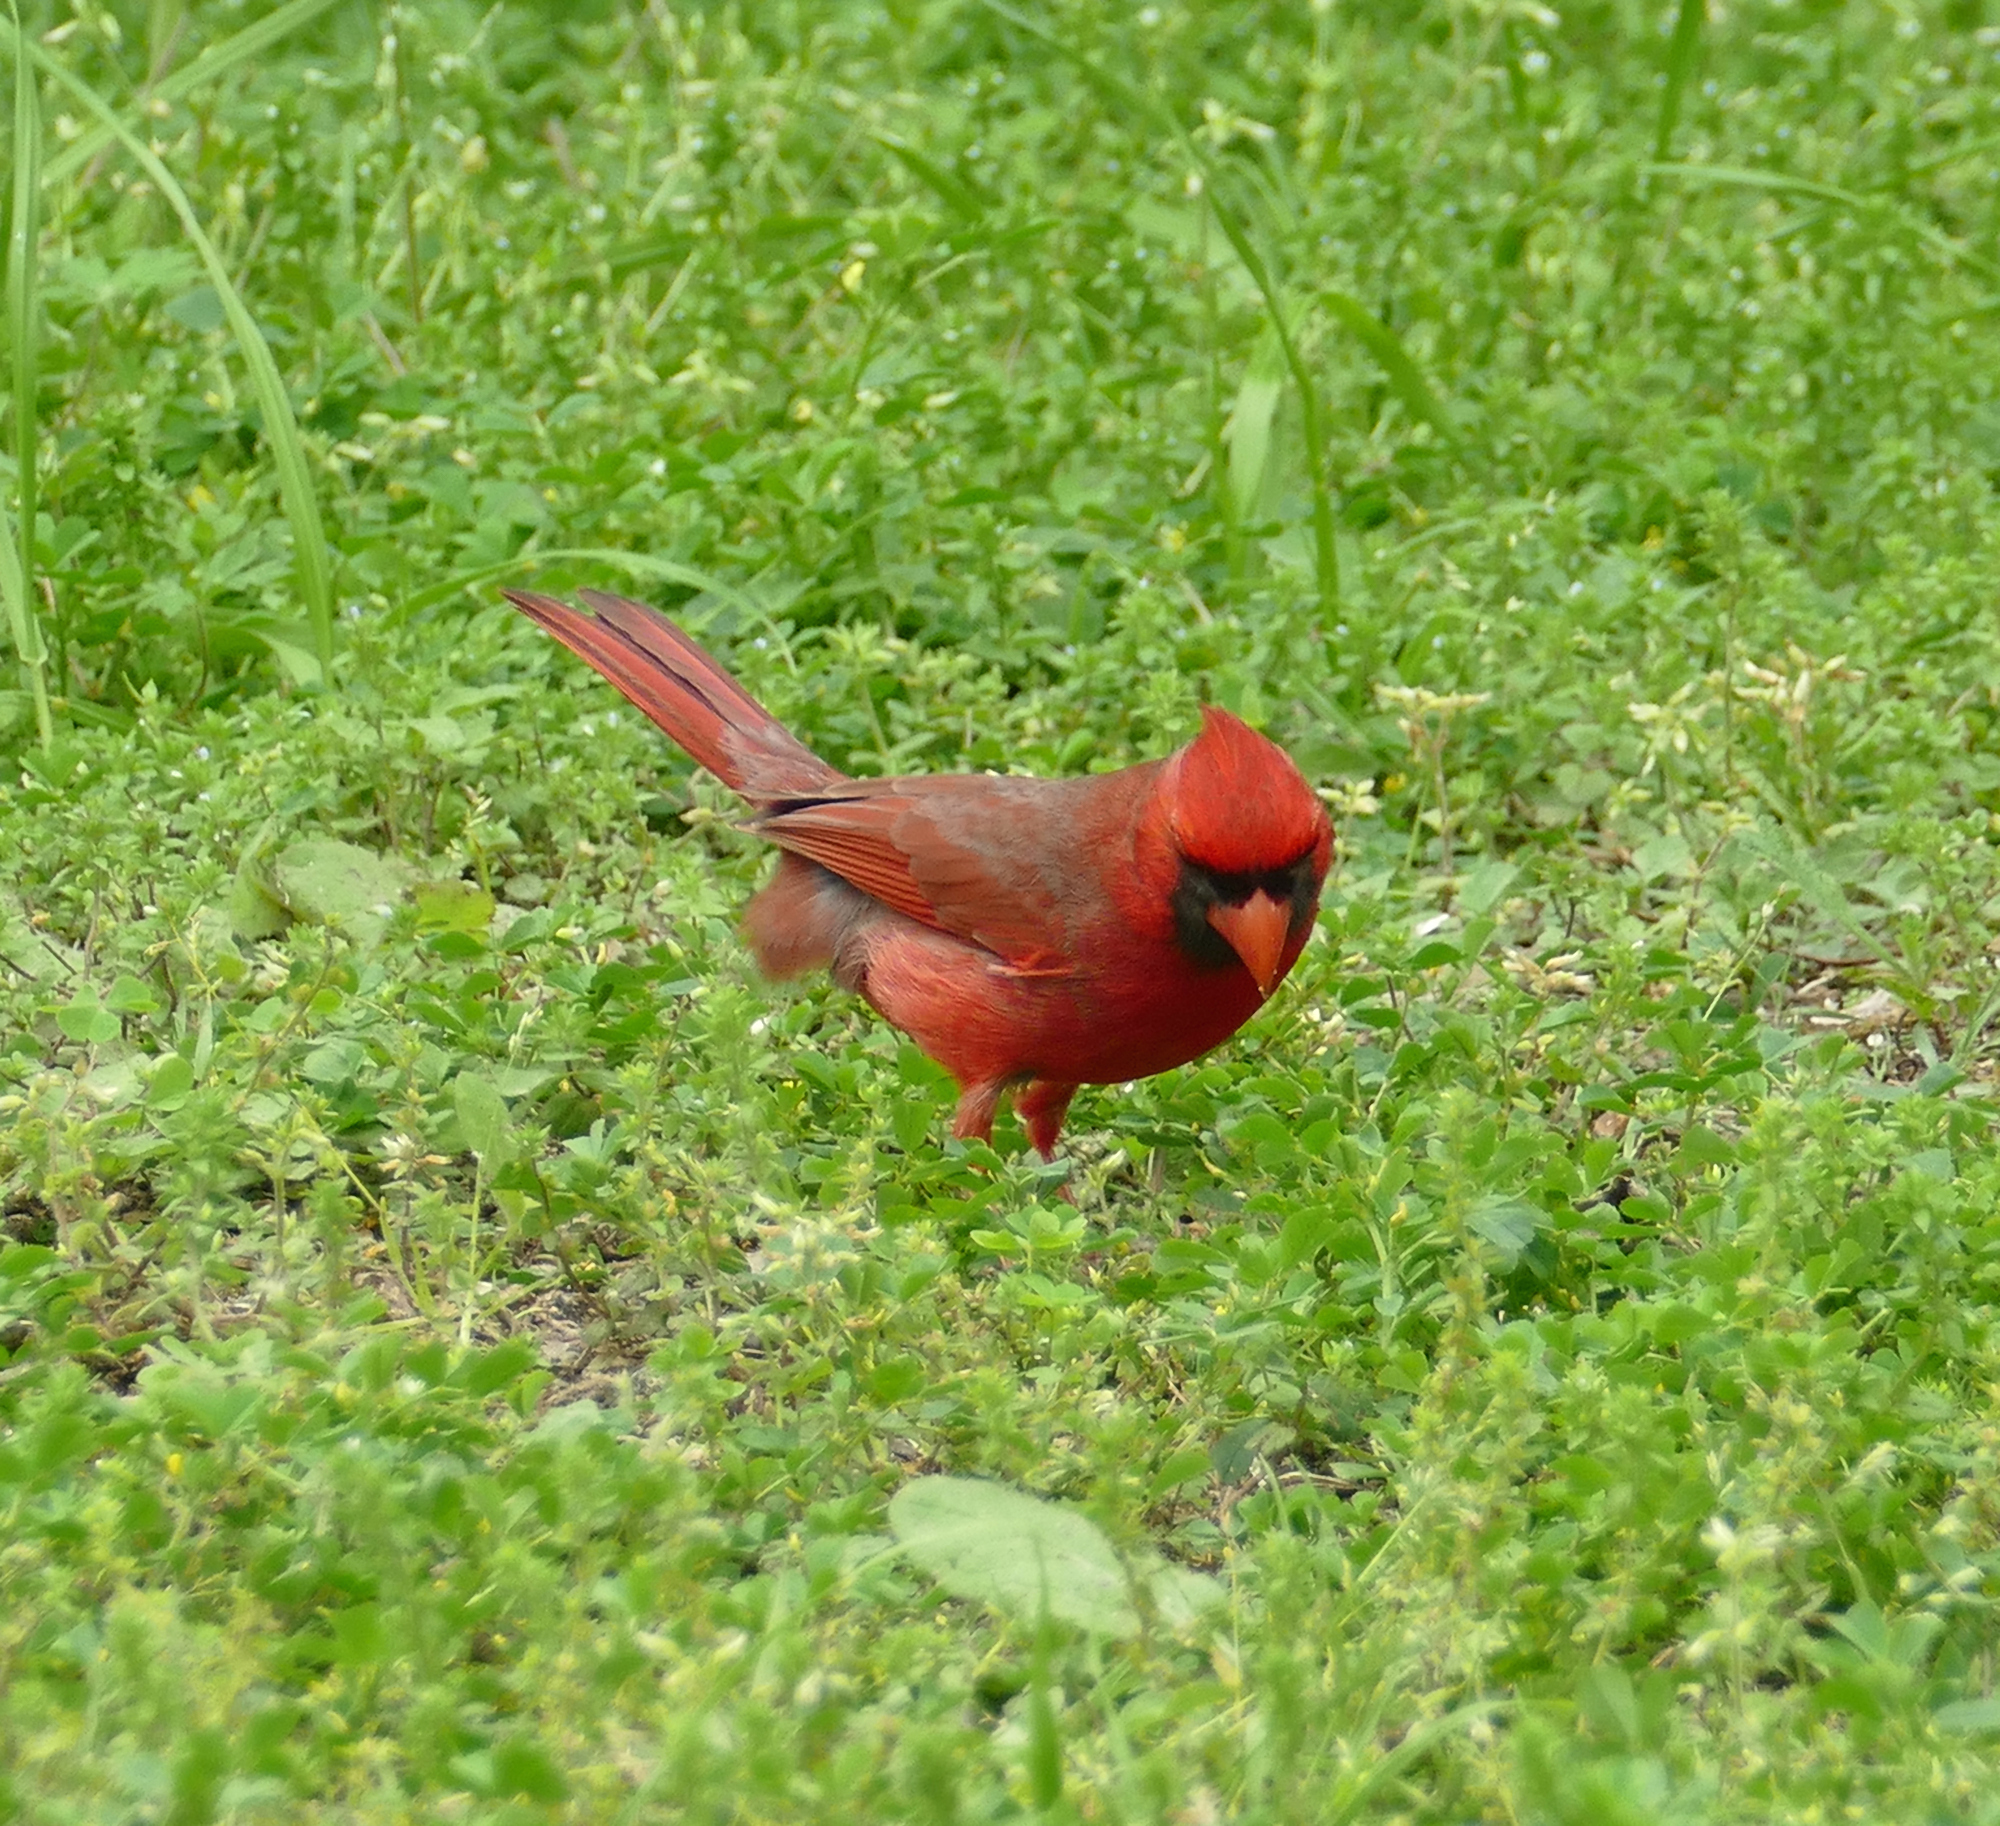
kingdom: Animalia
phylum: Chordata
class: Aves
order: Passeriformes
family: Cardinalidae
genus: Cardinalis
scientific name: Cardinalis cardinalis
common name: Northern cardinal
